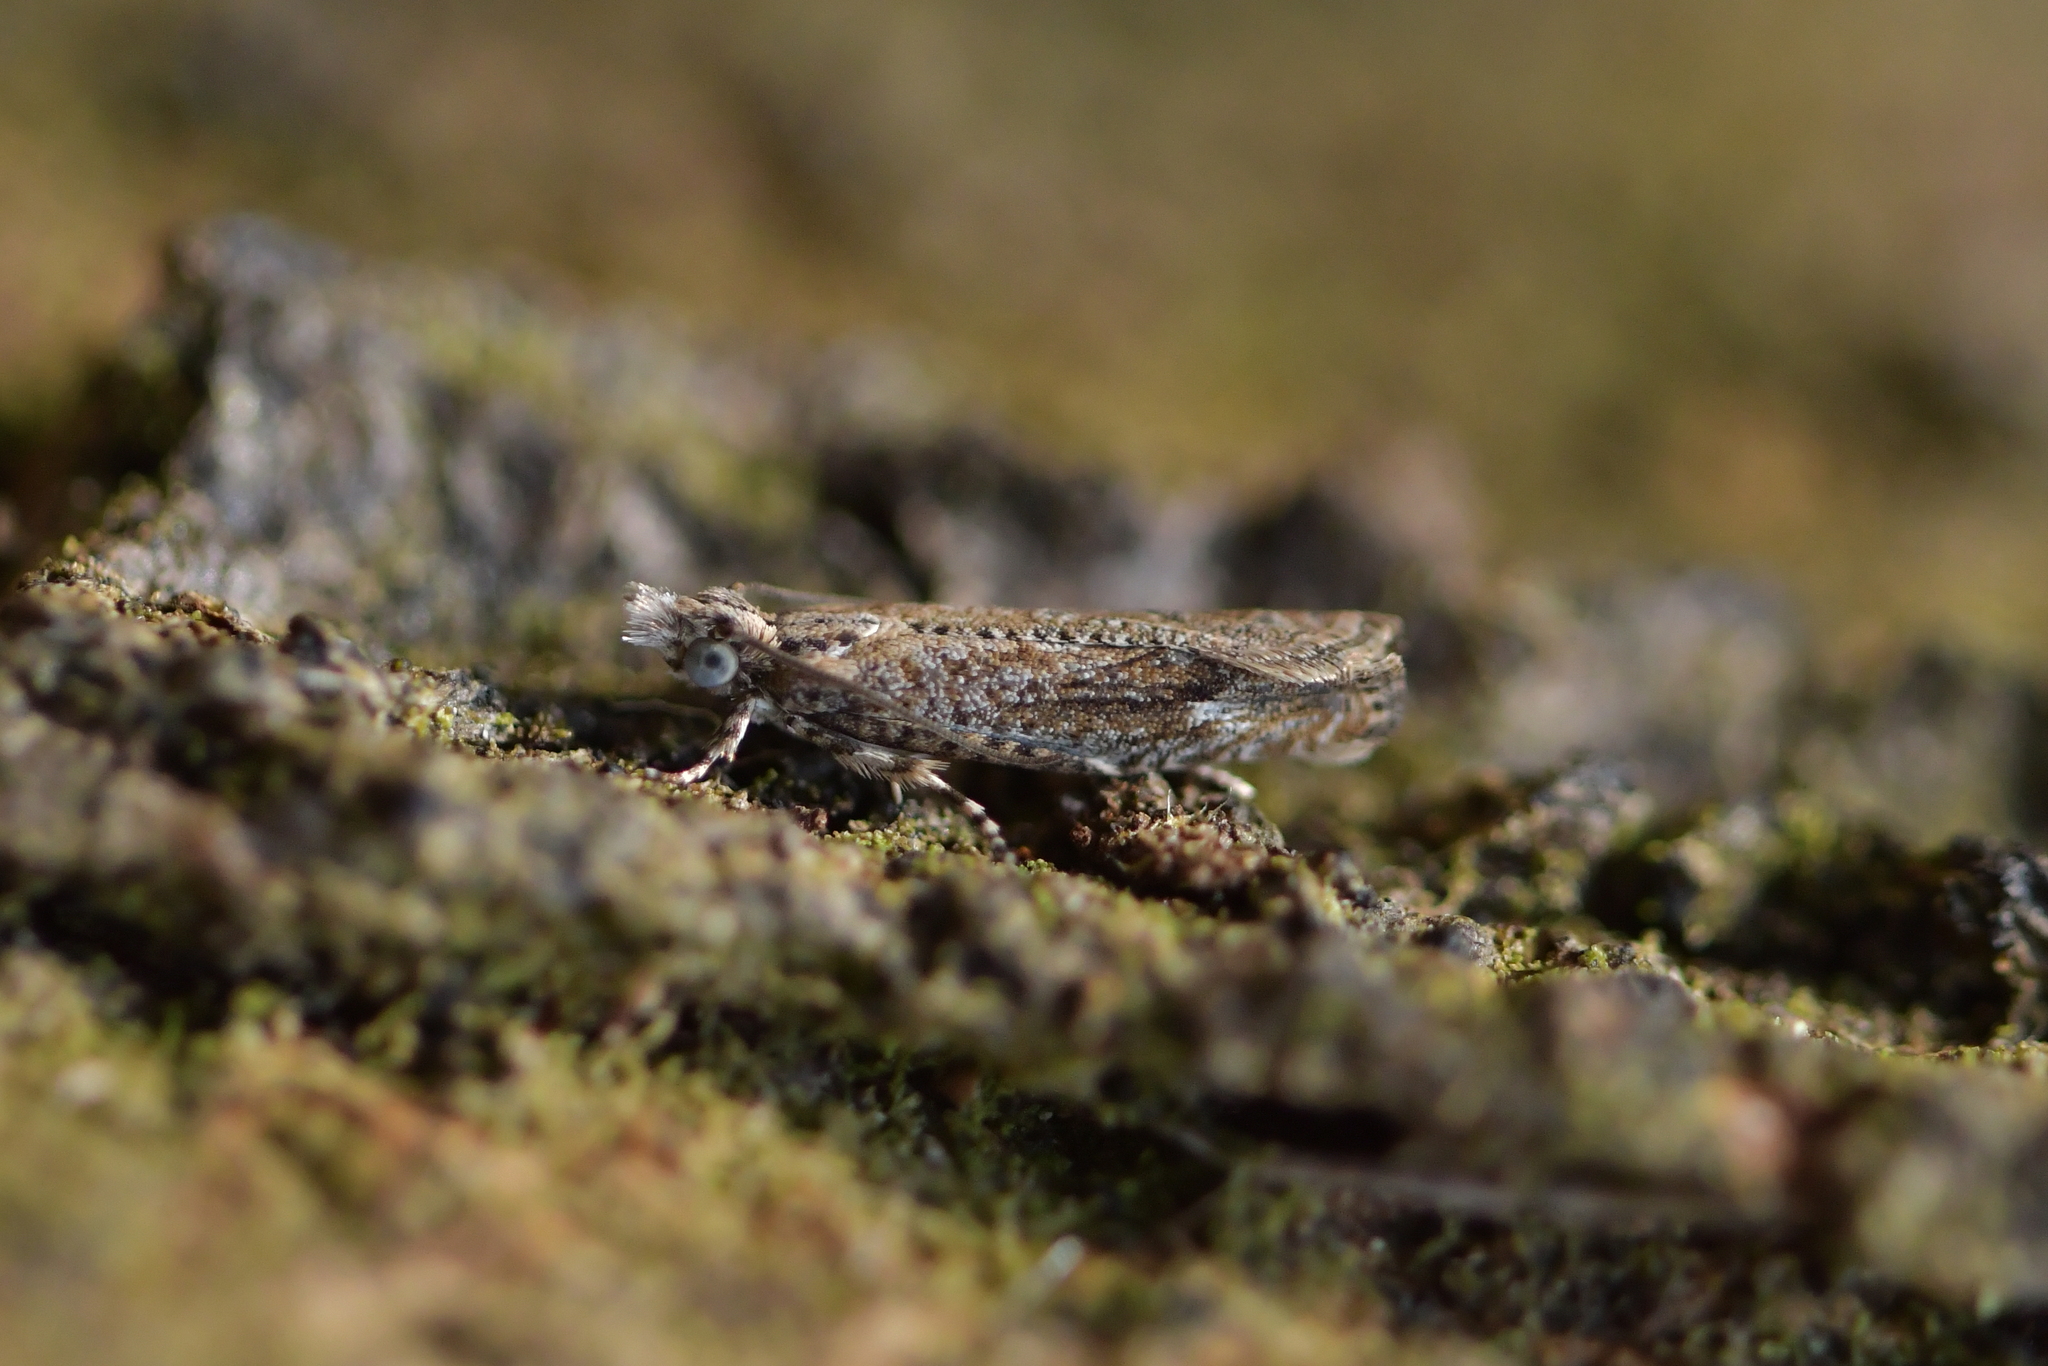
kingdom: Animalia
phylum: Arthropoda
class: Insecta
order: Lepidoptera
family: Tortricidae
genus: Strepsicrates
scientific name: Strepsicrates ejectana
